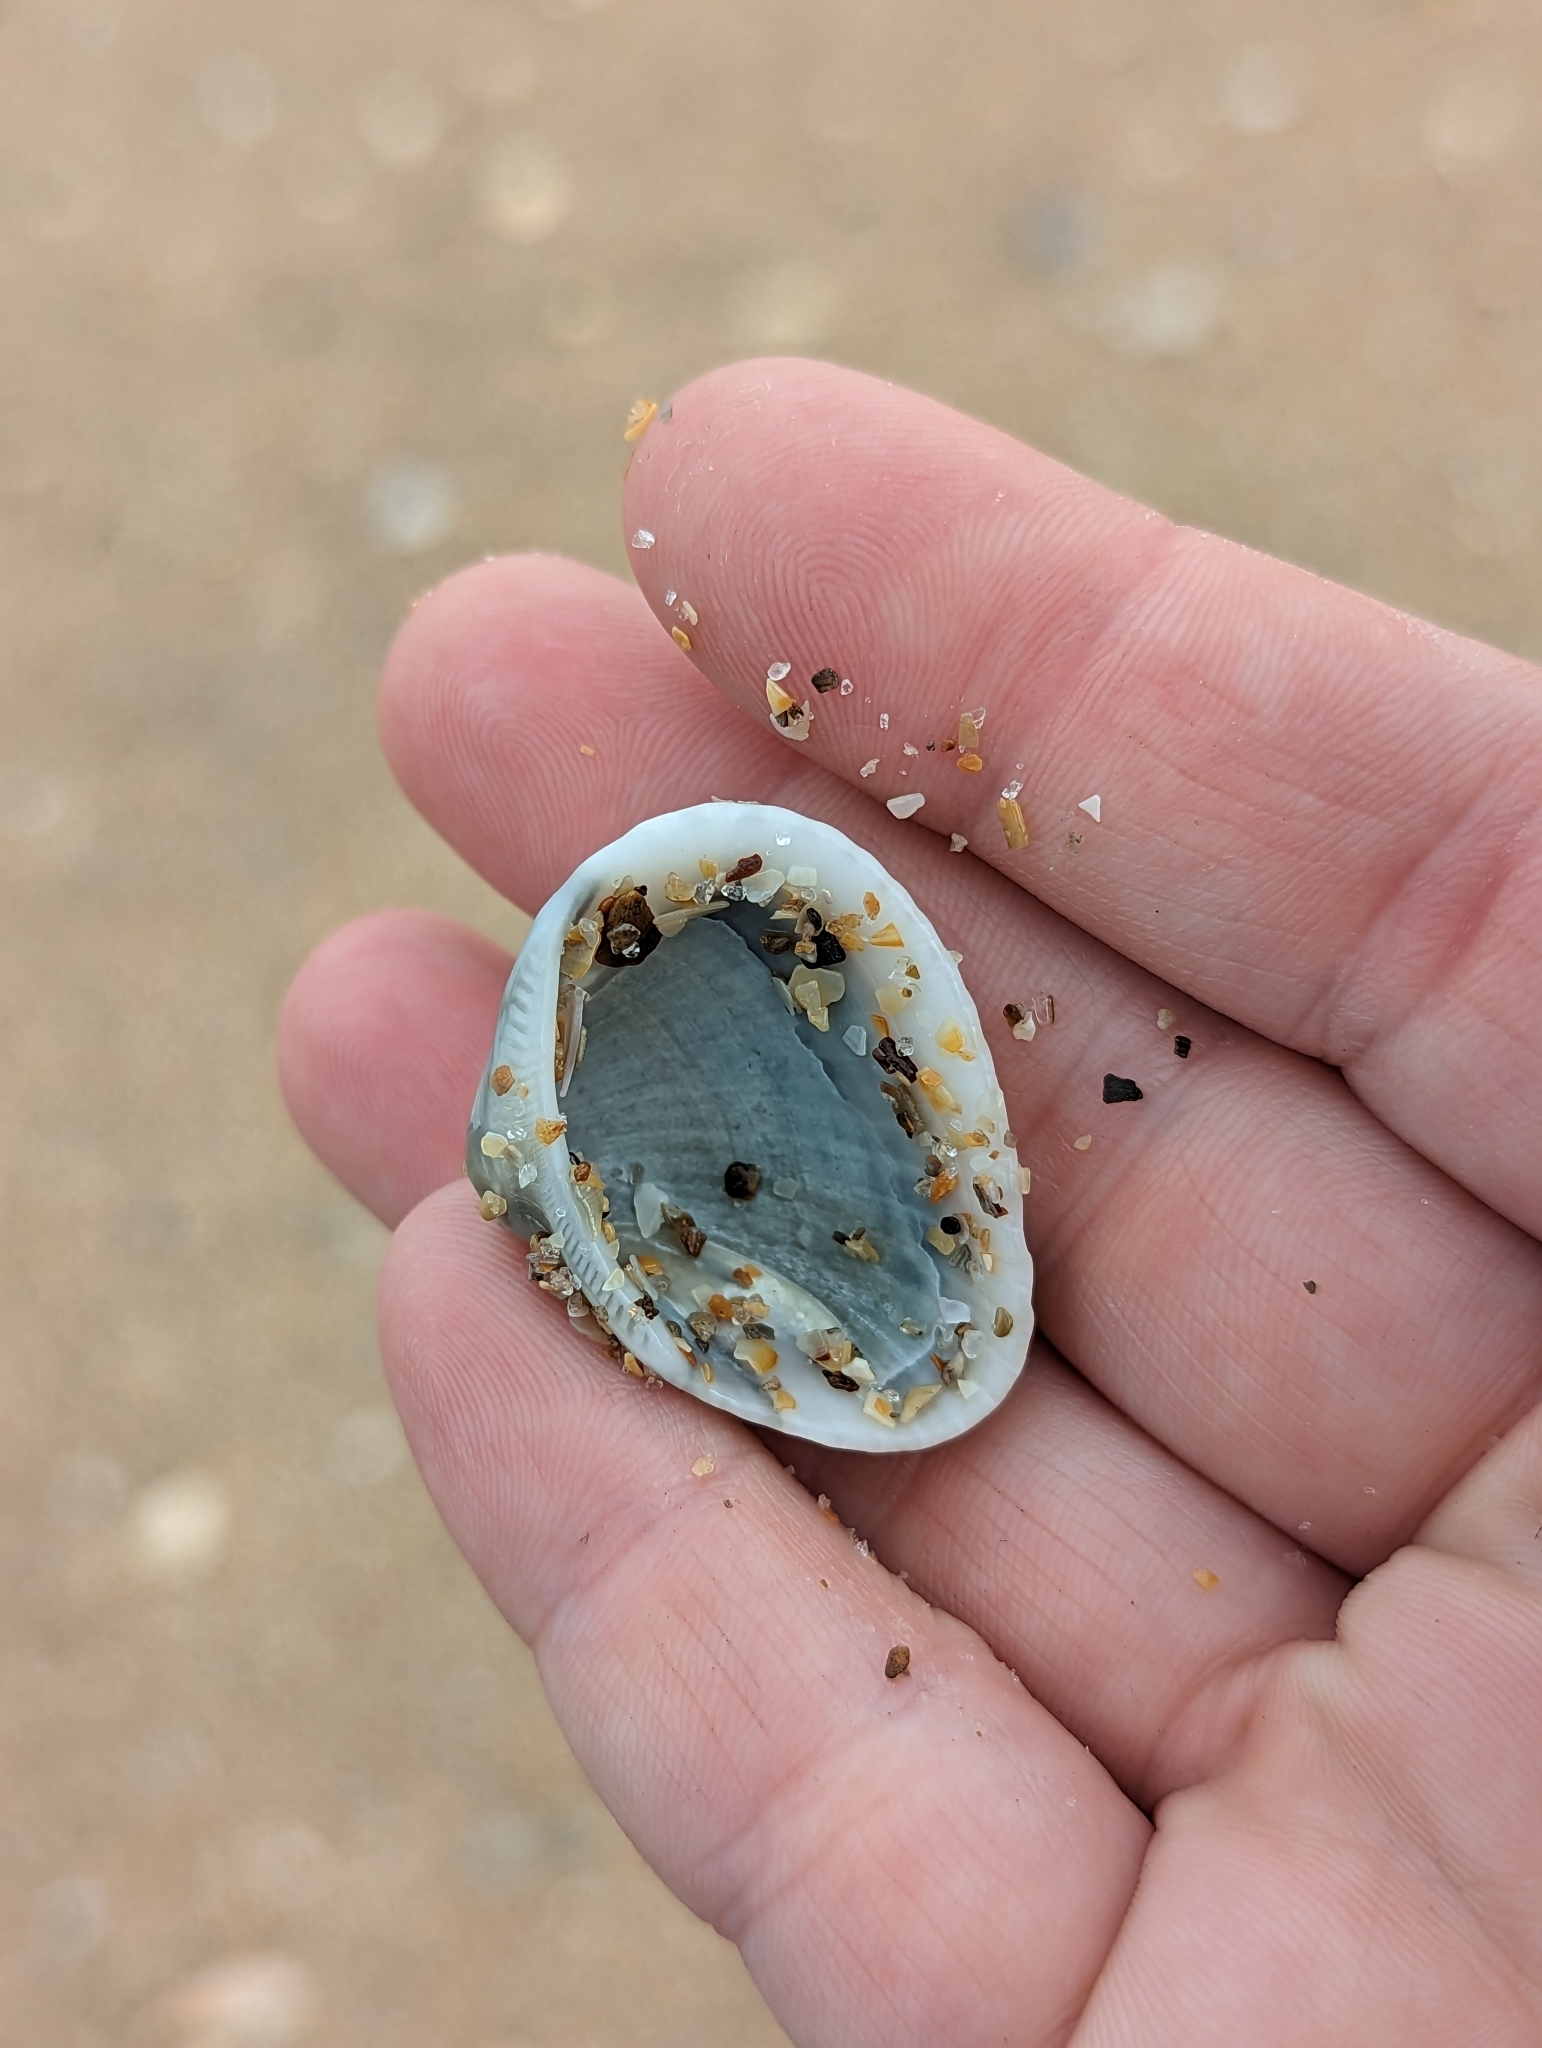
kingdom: Animalia
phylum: Mollusca
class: Bivalvia
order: Arcida
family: Noetiidae
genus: Noetia
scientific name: Noetia ponderosa
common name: Ponderous ark
